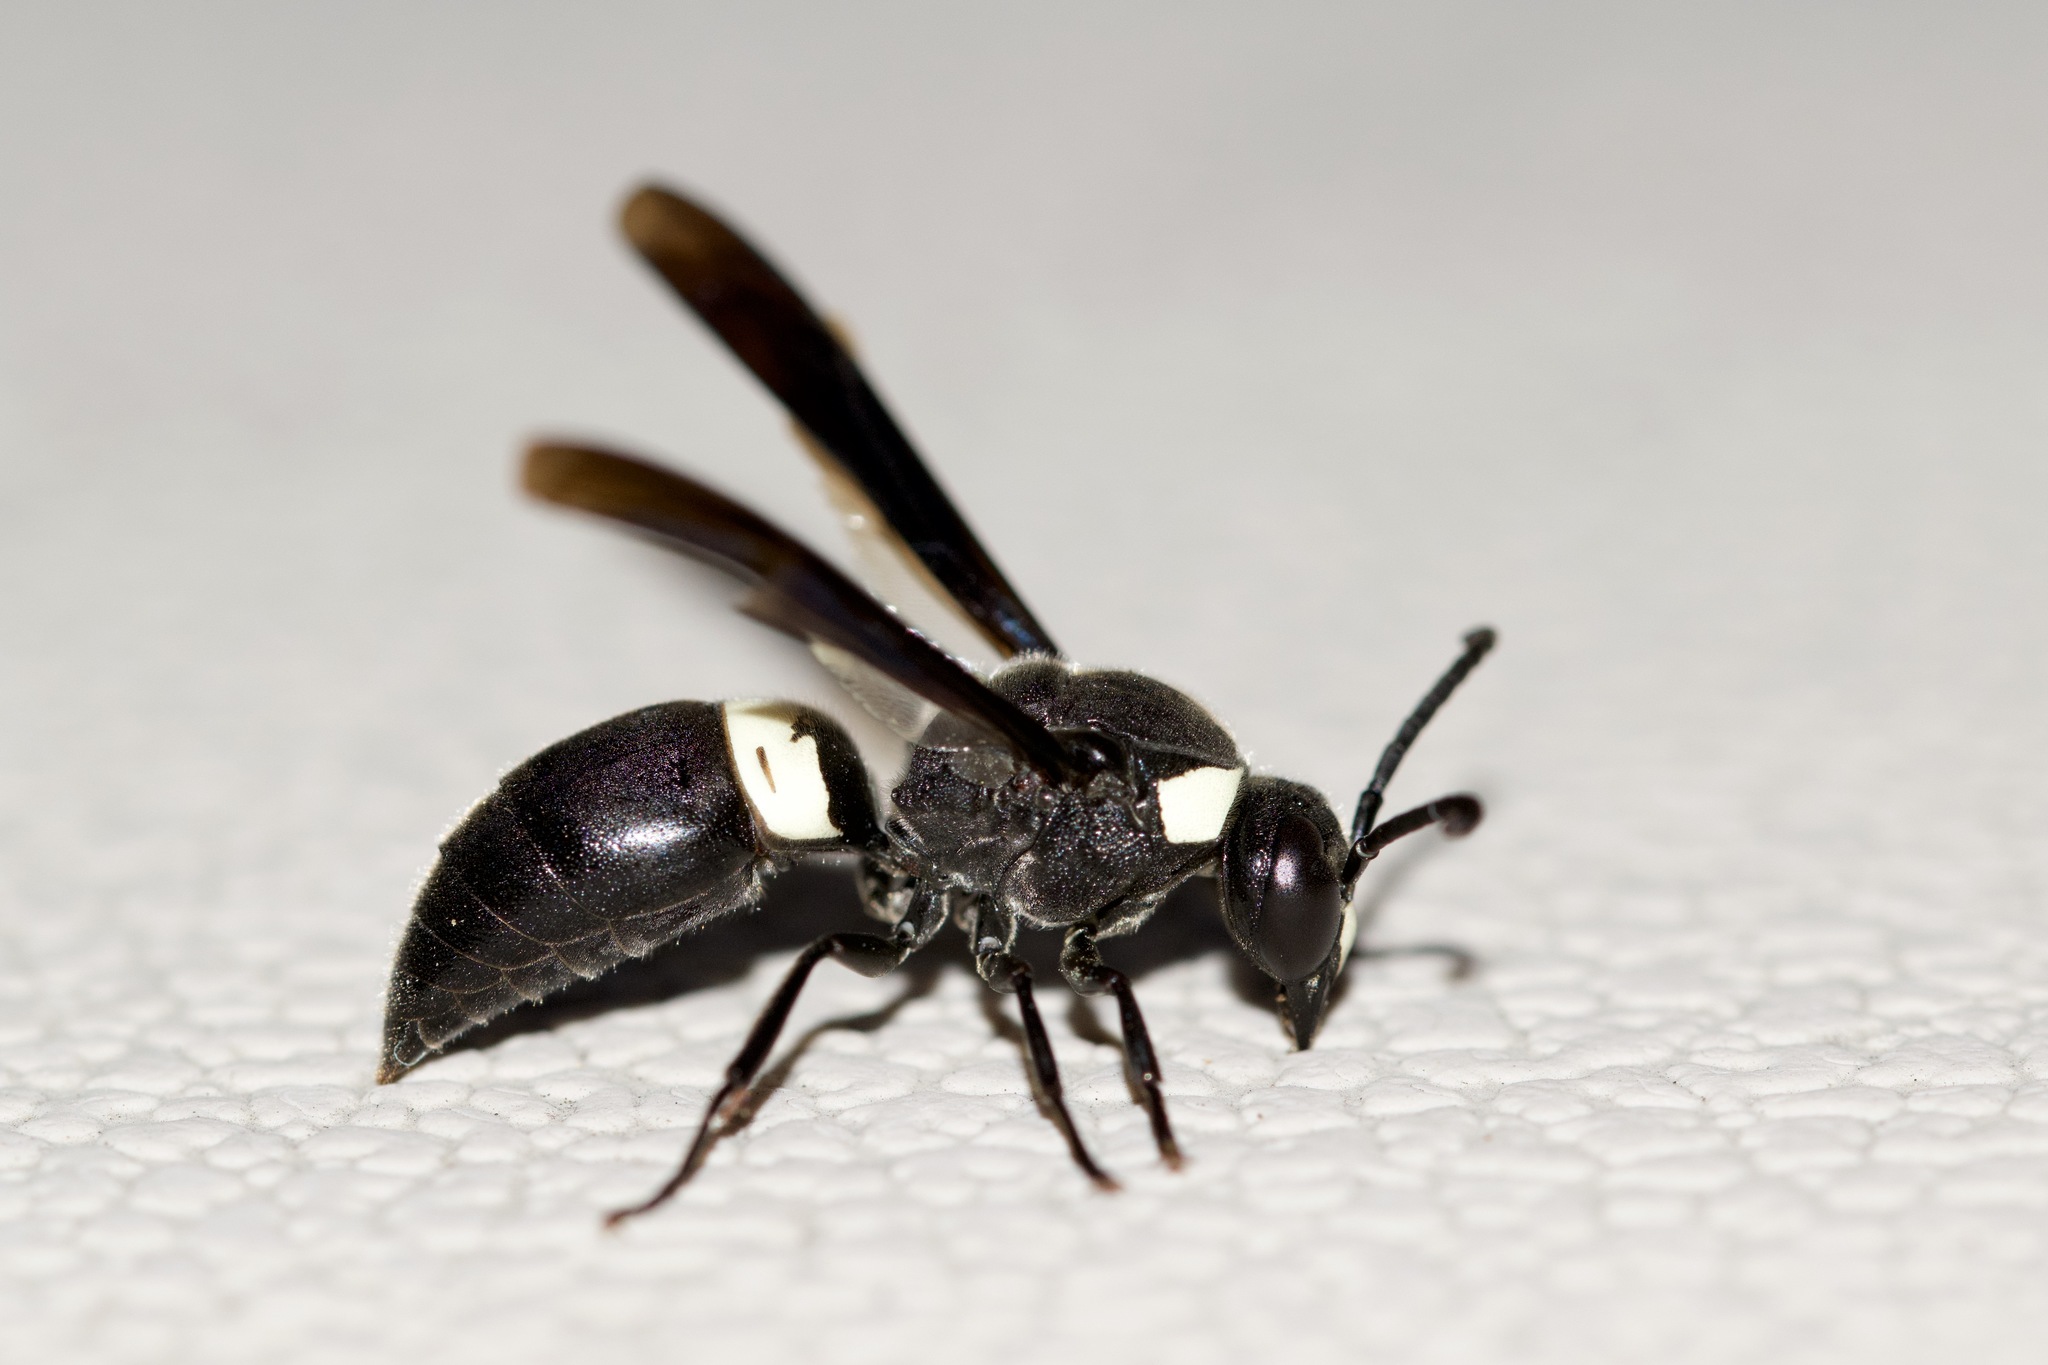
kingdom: Animalia
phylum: Arthropoda
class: Insecta
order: Hymenoptera
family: Eumenidae
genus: Monobia
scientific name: Monobia quadridens
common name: Four-toothed mason wasp
